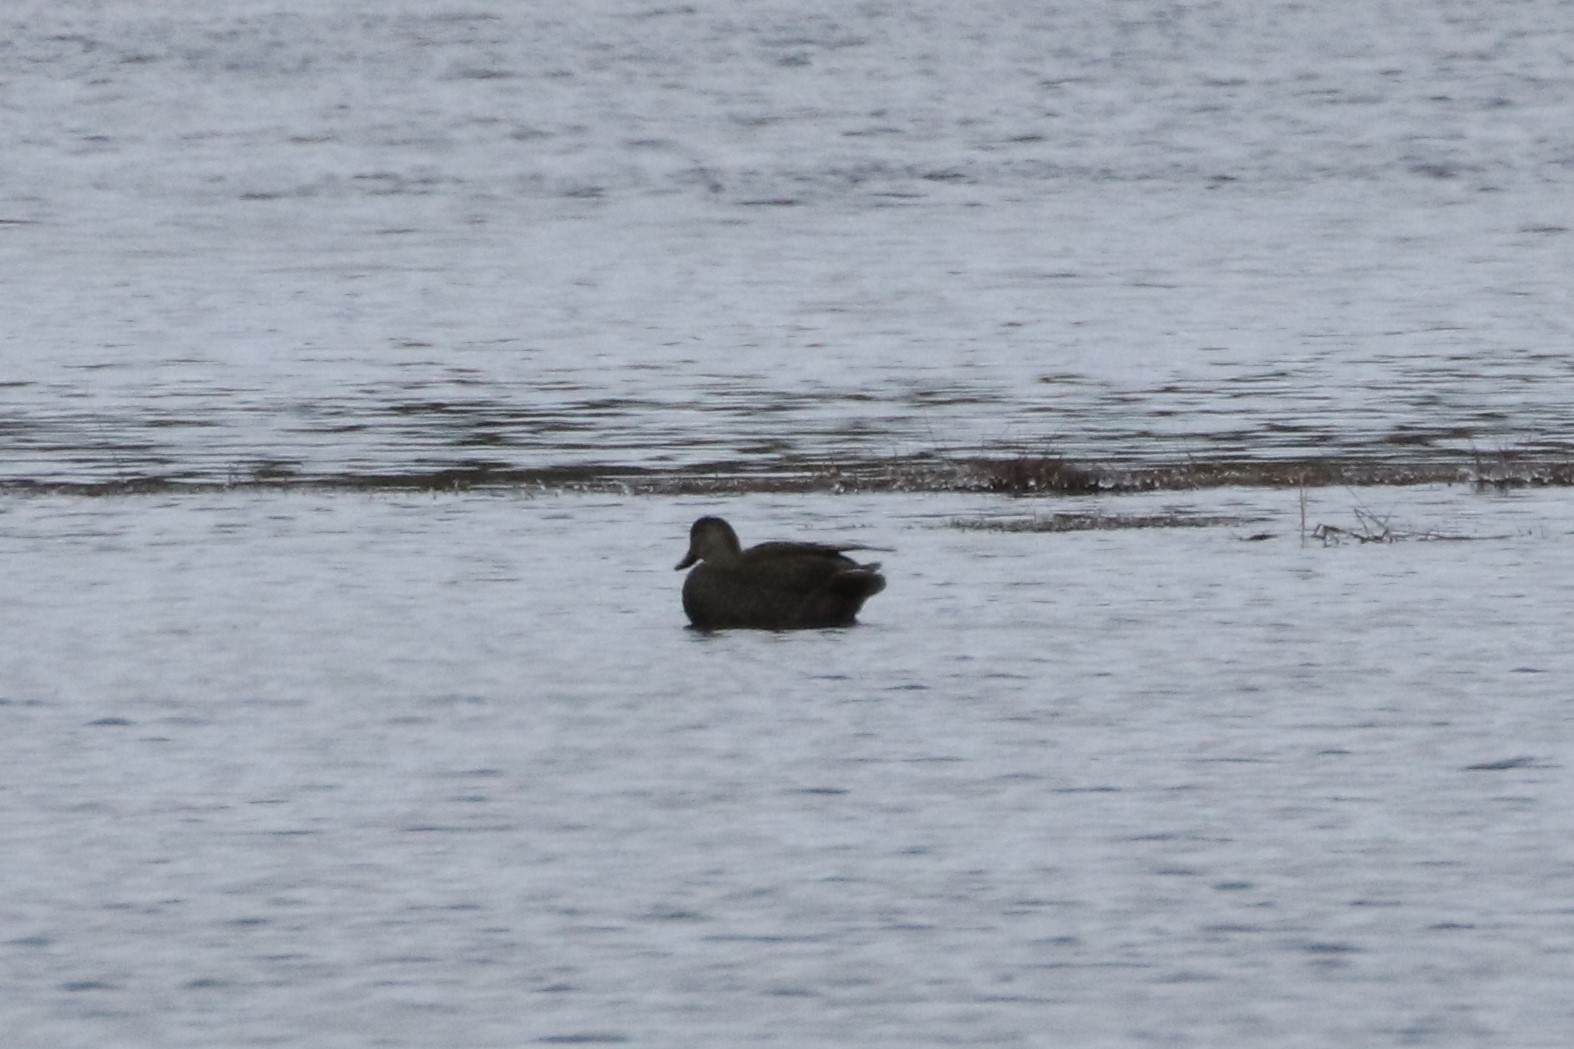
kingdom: Animalia
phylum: Chordata
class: Aves
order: Anseriformes
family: Anatidae
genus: Anas
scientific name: Anas rubripes
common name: American black duck
